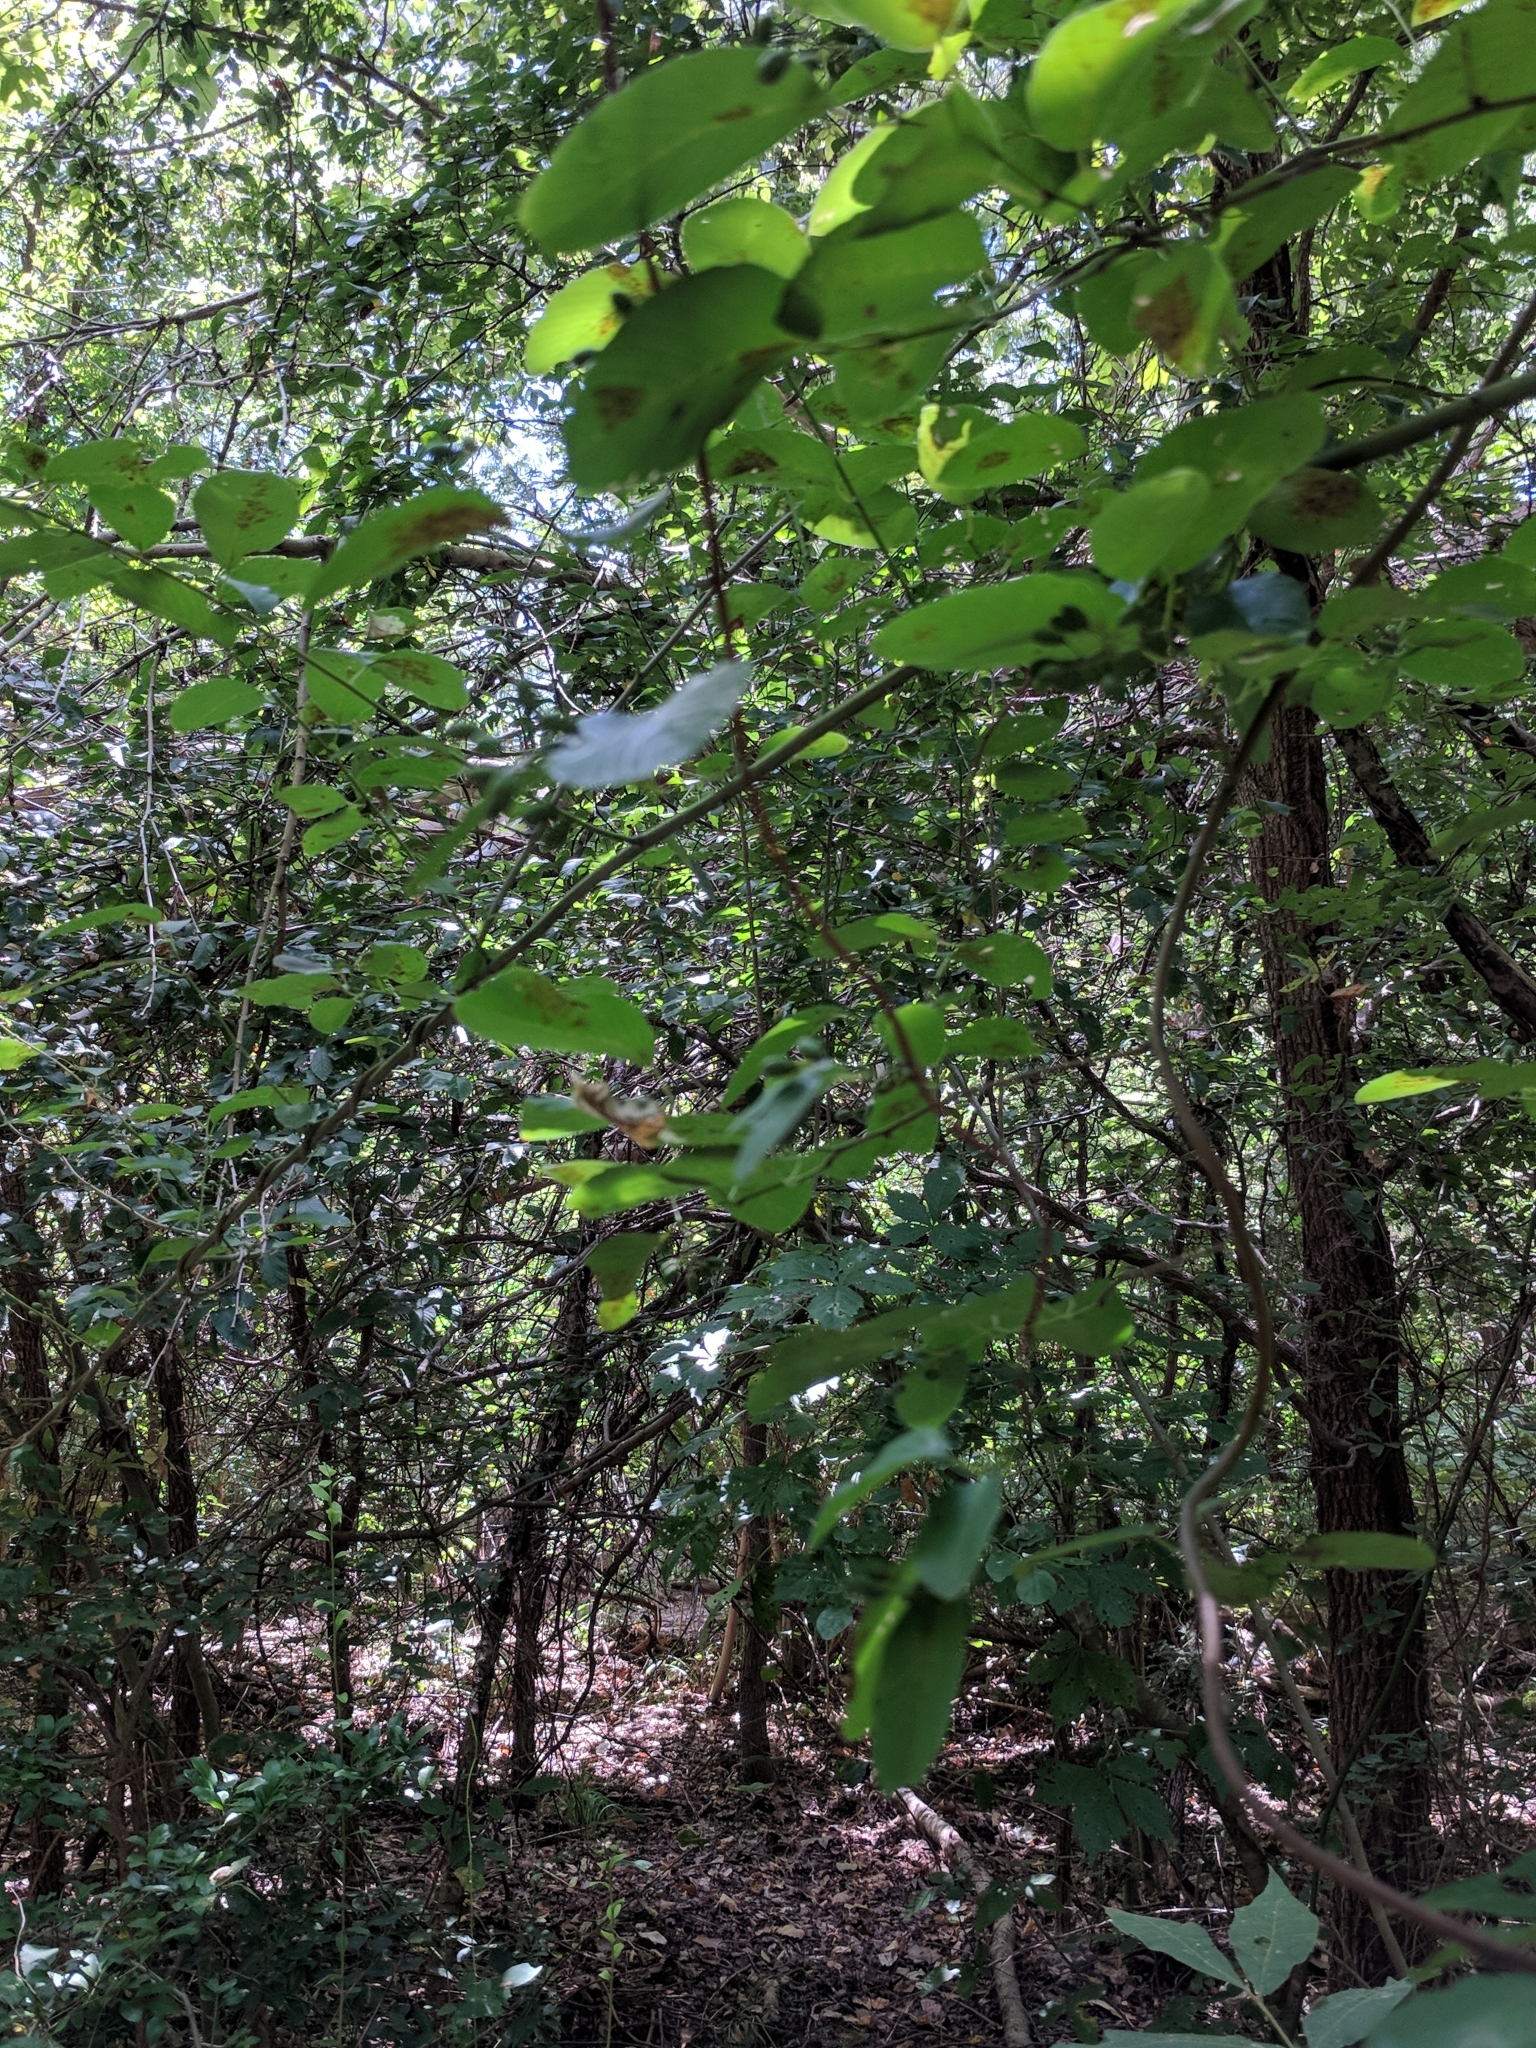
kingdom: Plantae
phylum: Tracheophyta
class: Magnoliopsida
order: Rosales
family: Rhamnaceae
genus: Berchemia
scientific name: Berchemia scandens
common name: Supplejack
